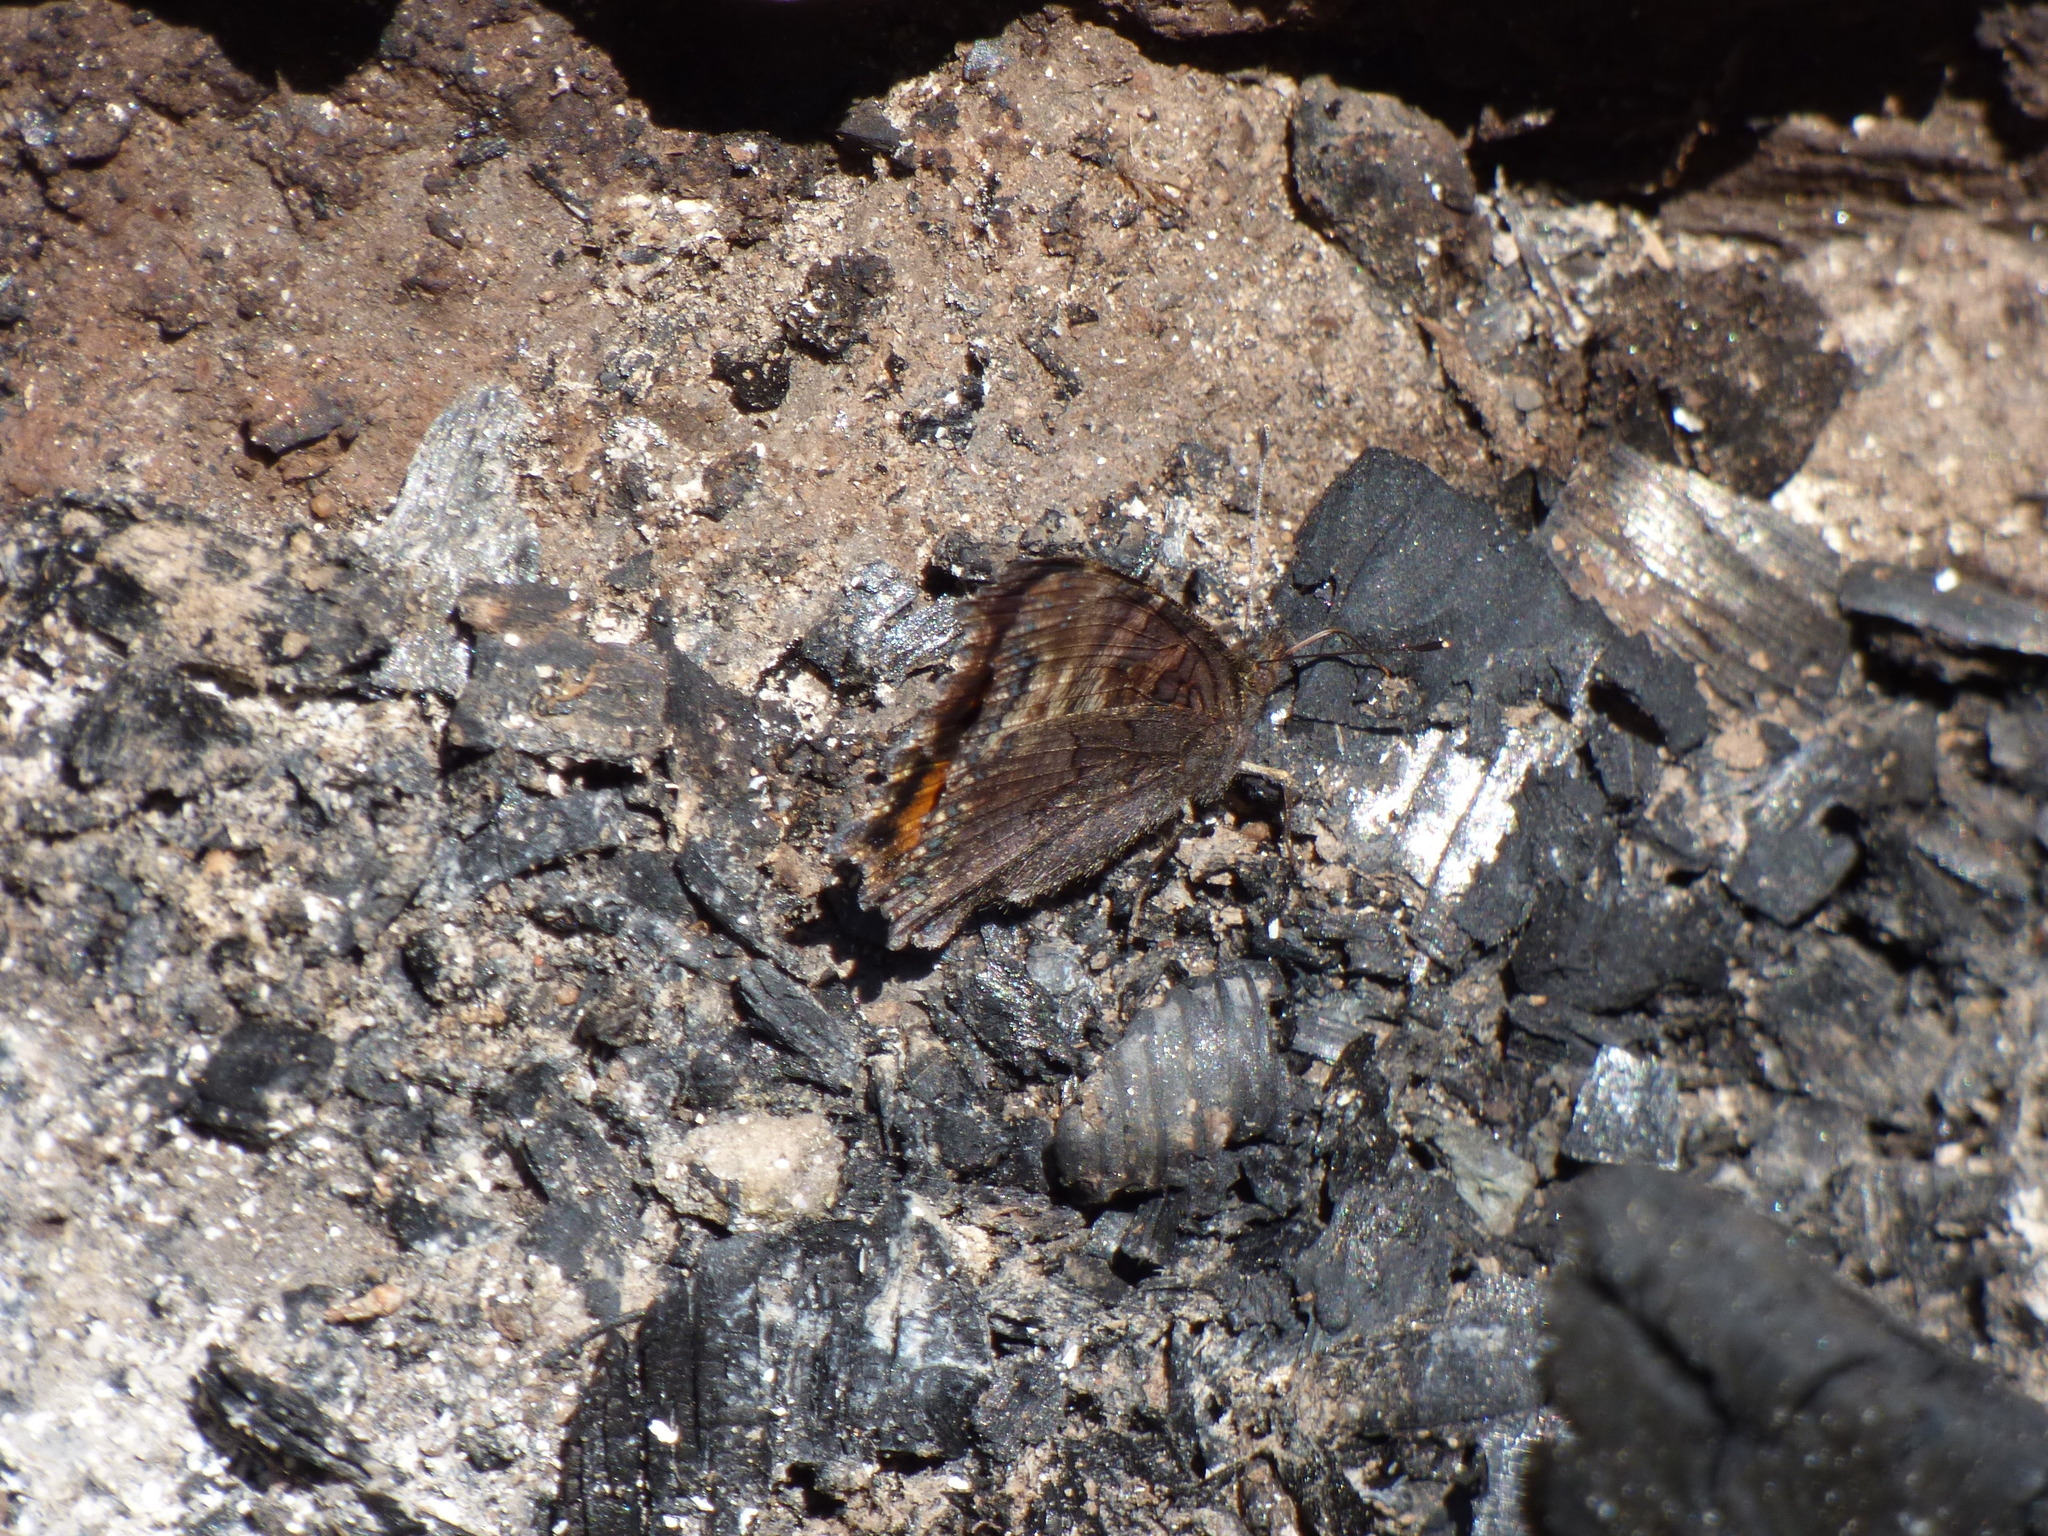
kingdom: Animalia
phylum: Arthropoda
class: Insecta
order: Lepidoptera
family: Nymphalidae
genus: Nymphalis
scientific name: Nymphalis californica
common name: California tortoiseshell
